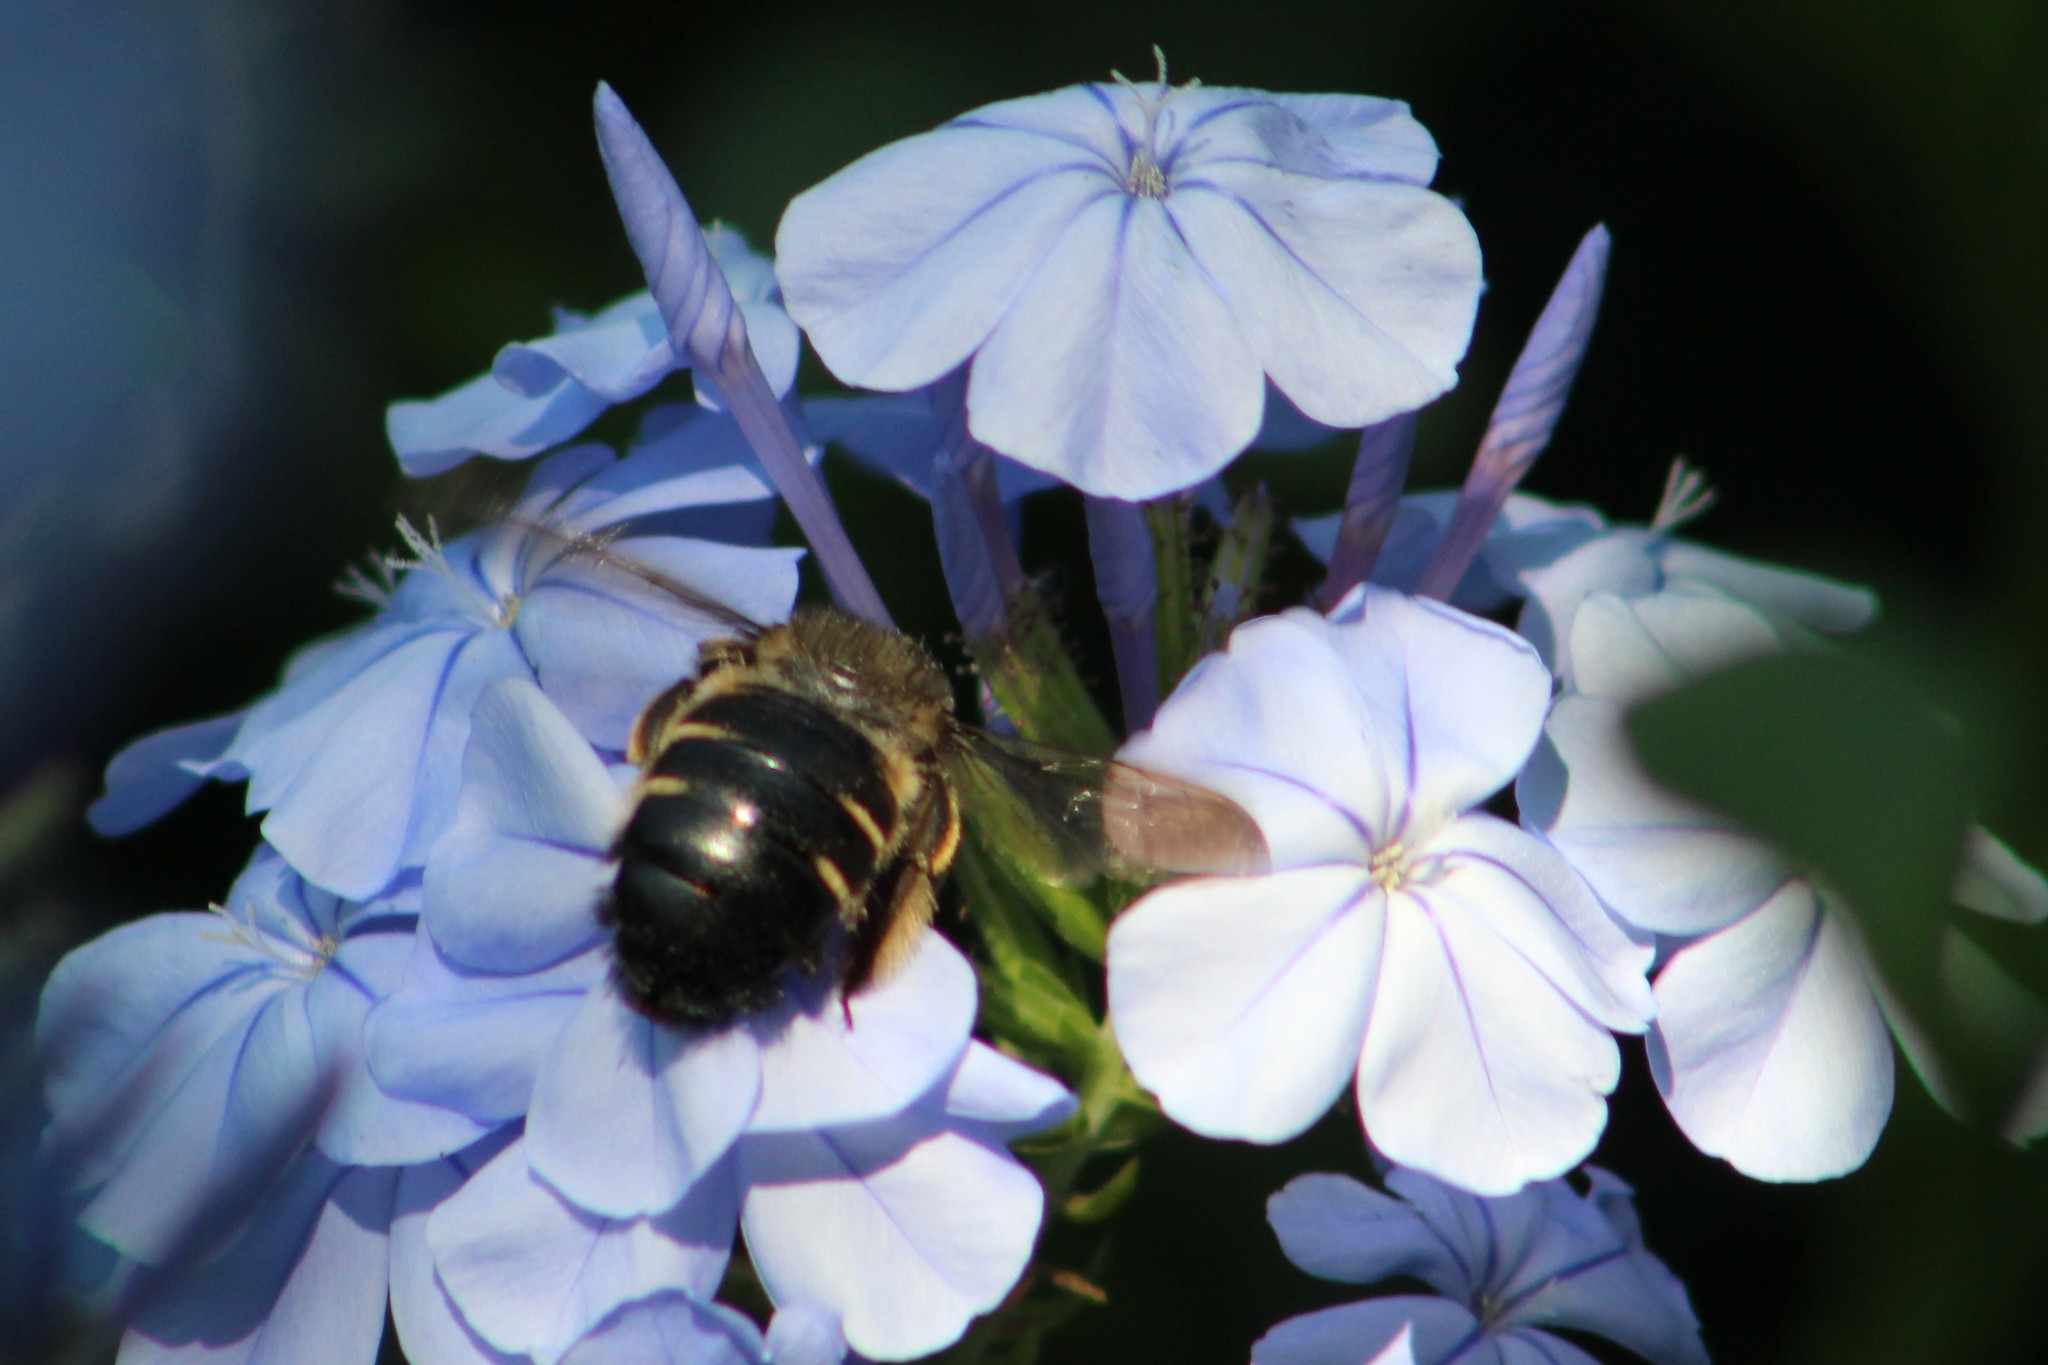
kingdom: Animalia
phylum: Arthropoda
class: Insecta
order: Hymenoptera
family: Apidae
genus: Xylocopa
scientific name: Xylocopa tabaniformis
